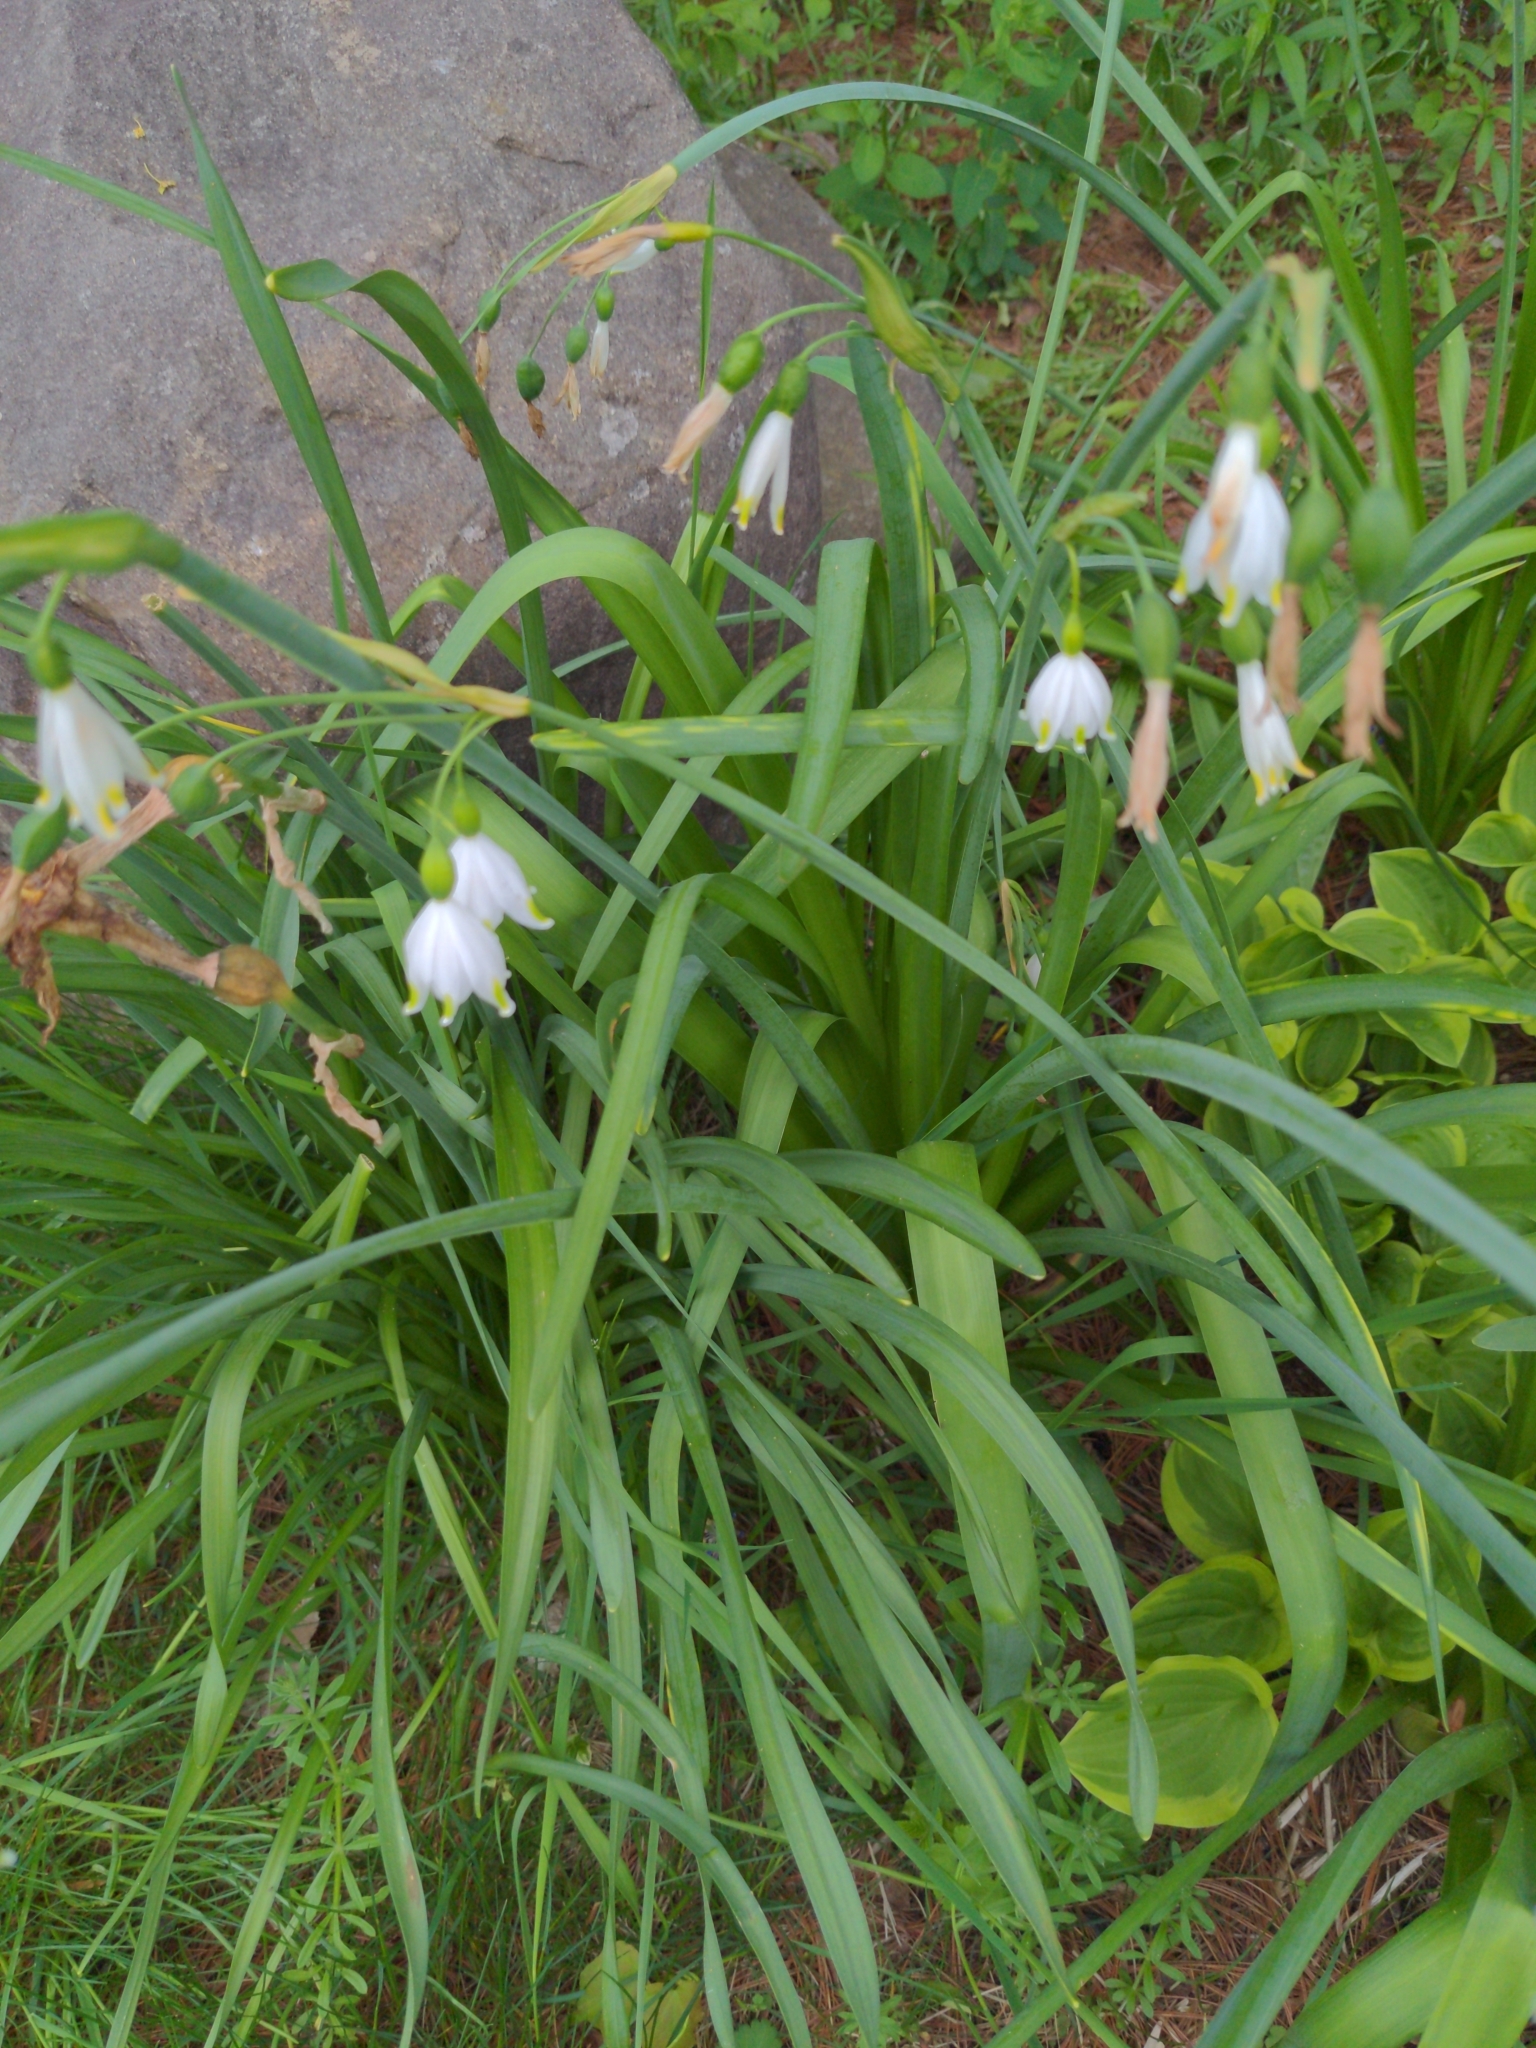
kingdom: Plantae
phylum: Tracheophyta
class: Liliopsida
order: Asparagales
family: Amaryllidaceae
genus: Leucojum
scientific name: Leucojum aestivum
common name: Summer snowflake
